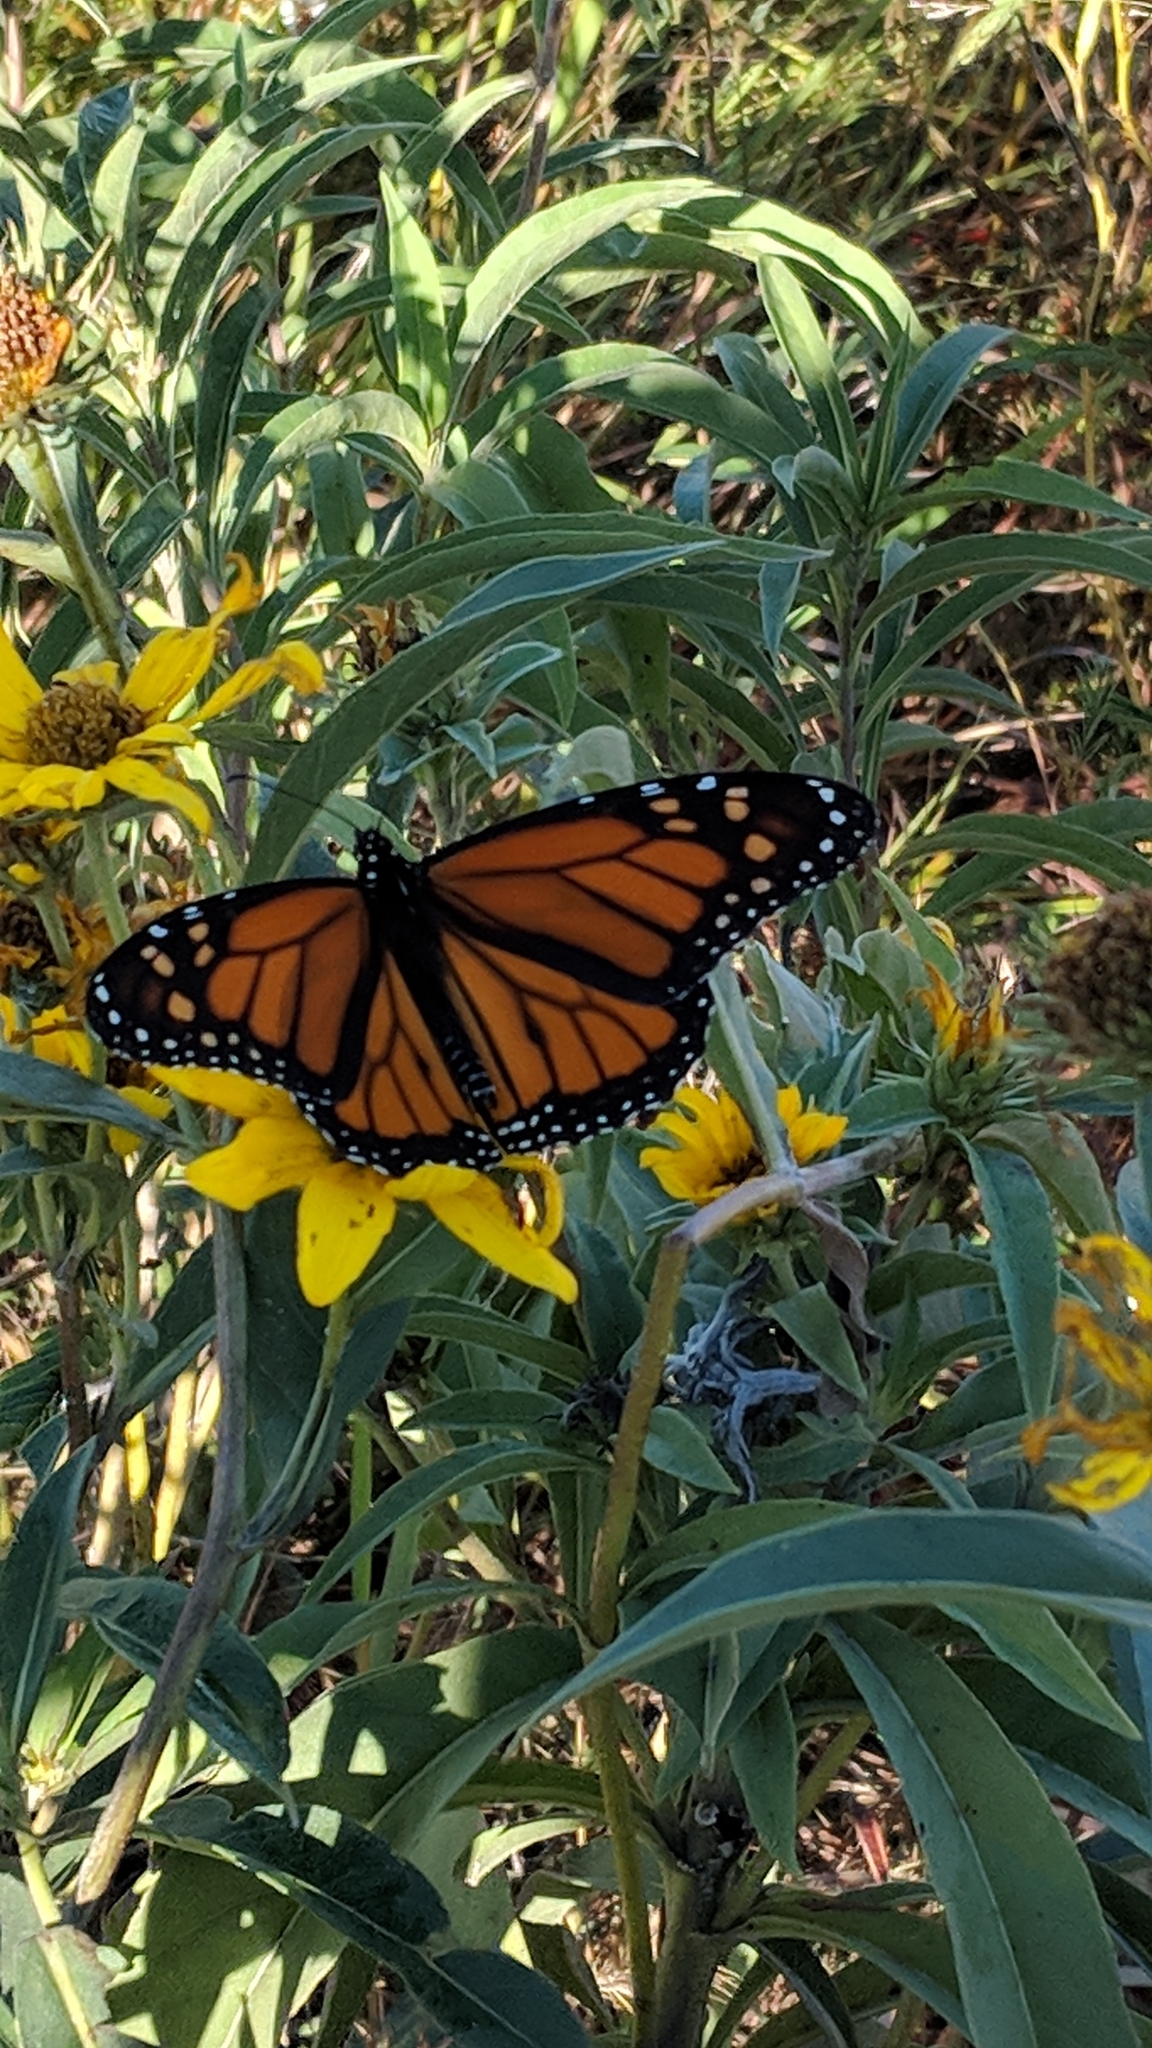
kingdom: Animalia
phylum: Arthropoda
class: Insecta
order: Lepidoptera
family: Nymphalidae
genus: Danaus
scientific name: Danaus plexippus
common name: Monarch
